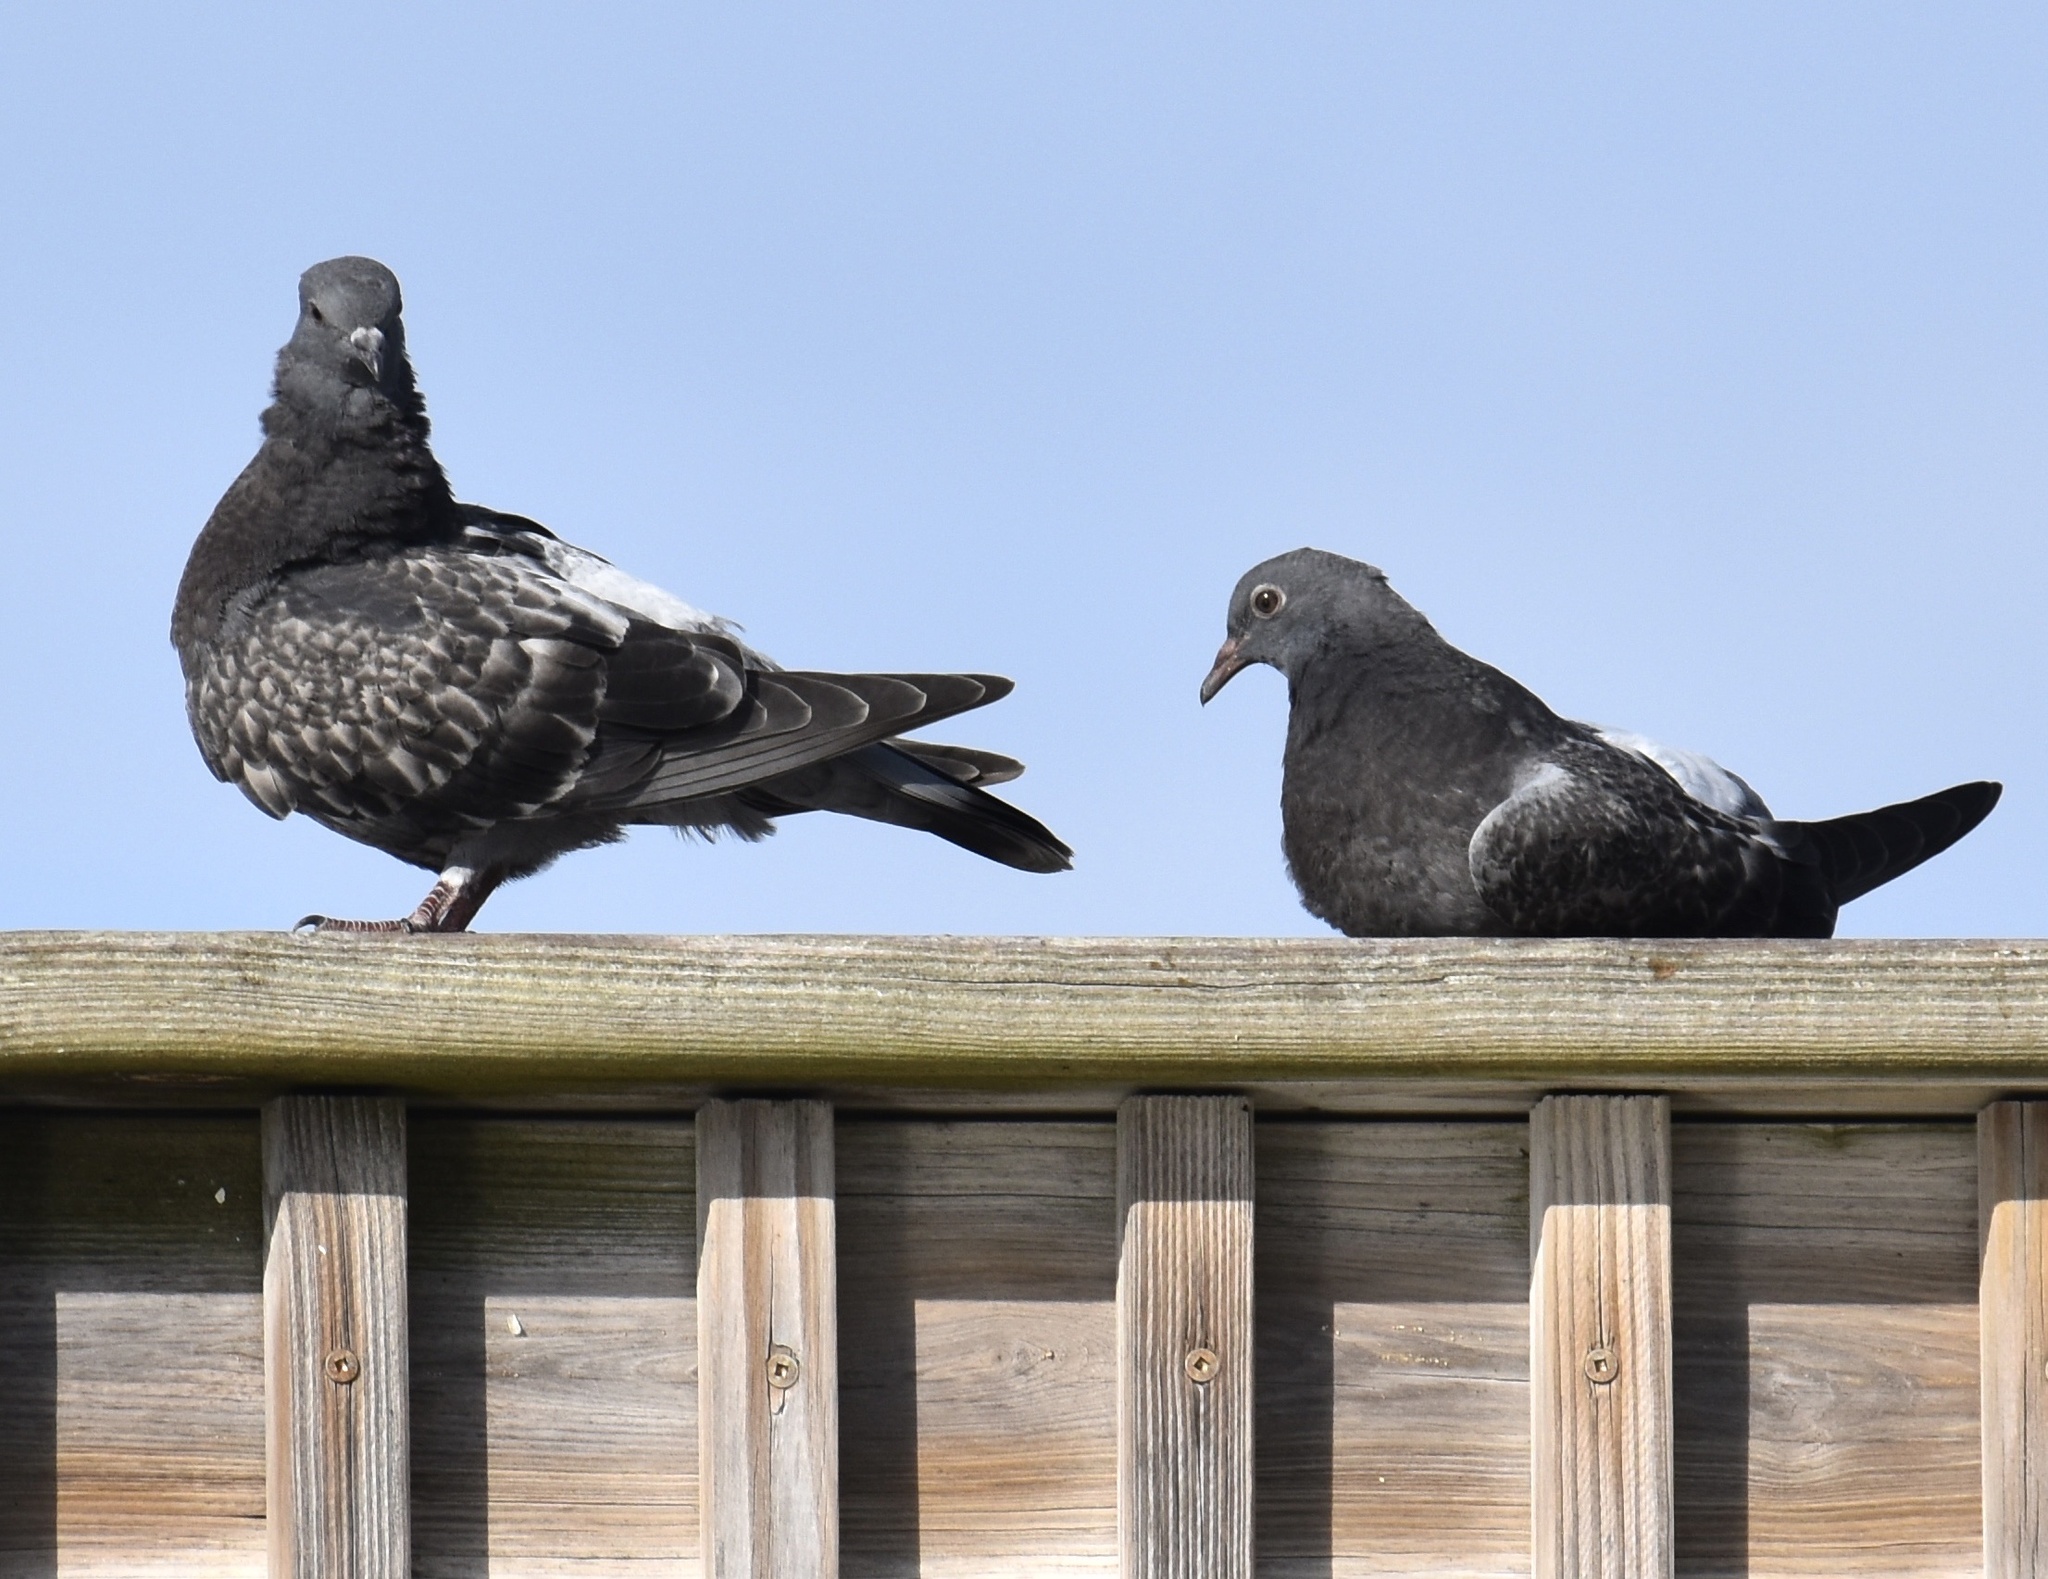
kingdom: Animalia
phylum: Chordata
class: Aves
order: Columbiformes
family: Columbidae
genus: Columba
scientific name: Columba livia
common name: Rock pigeon
